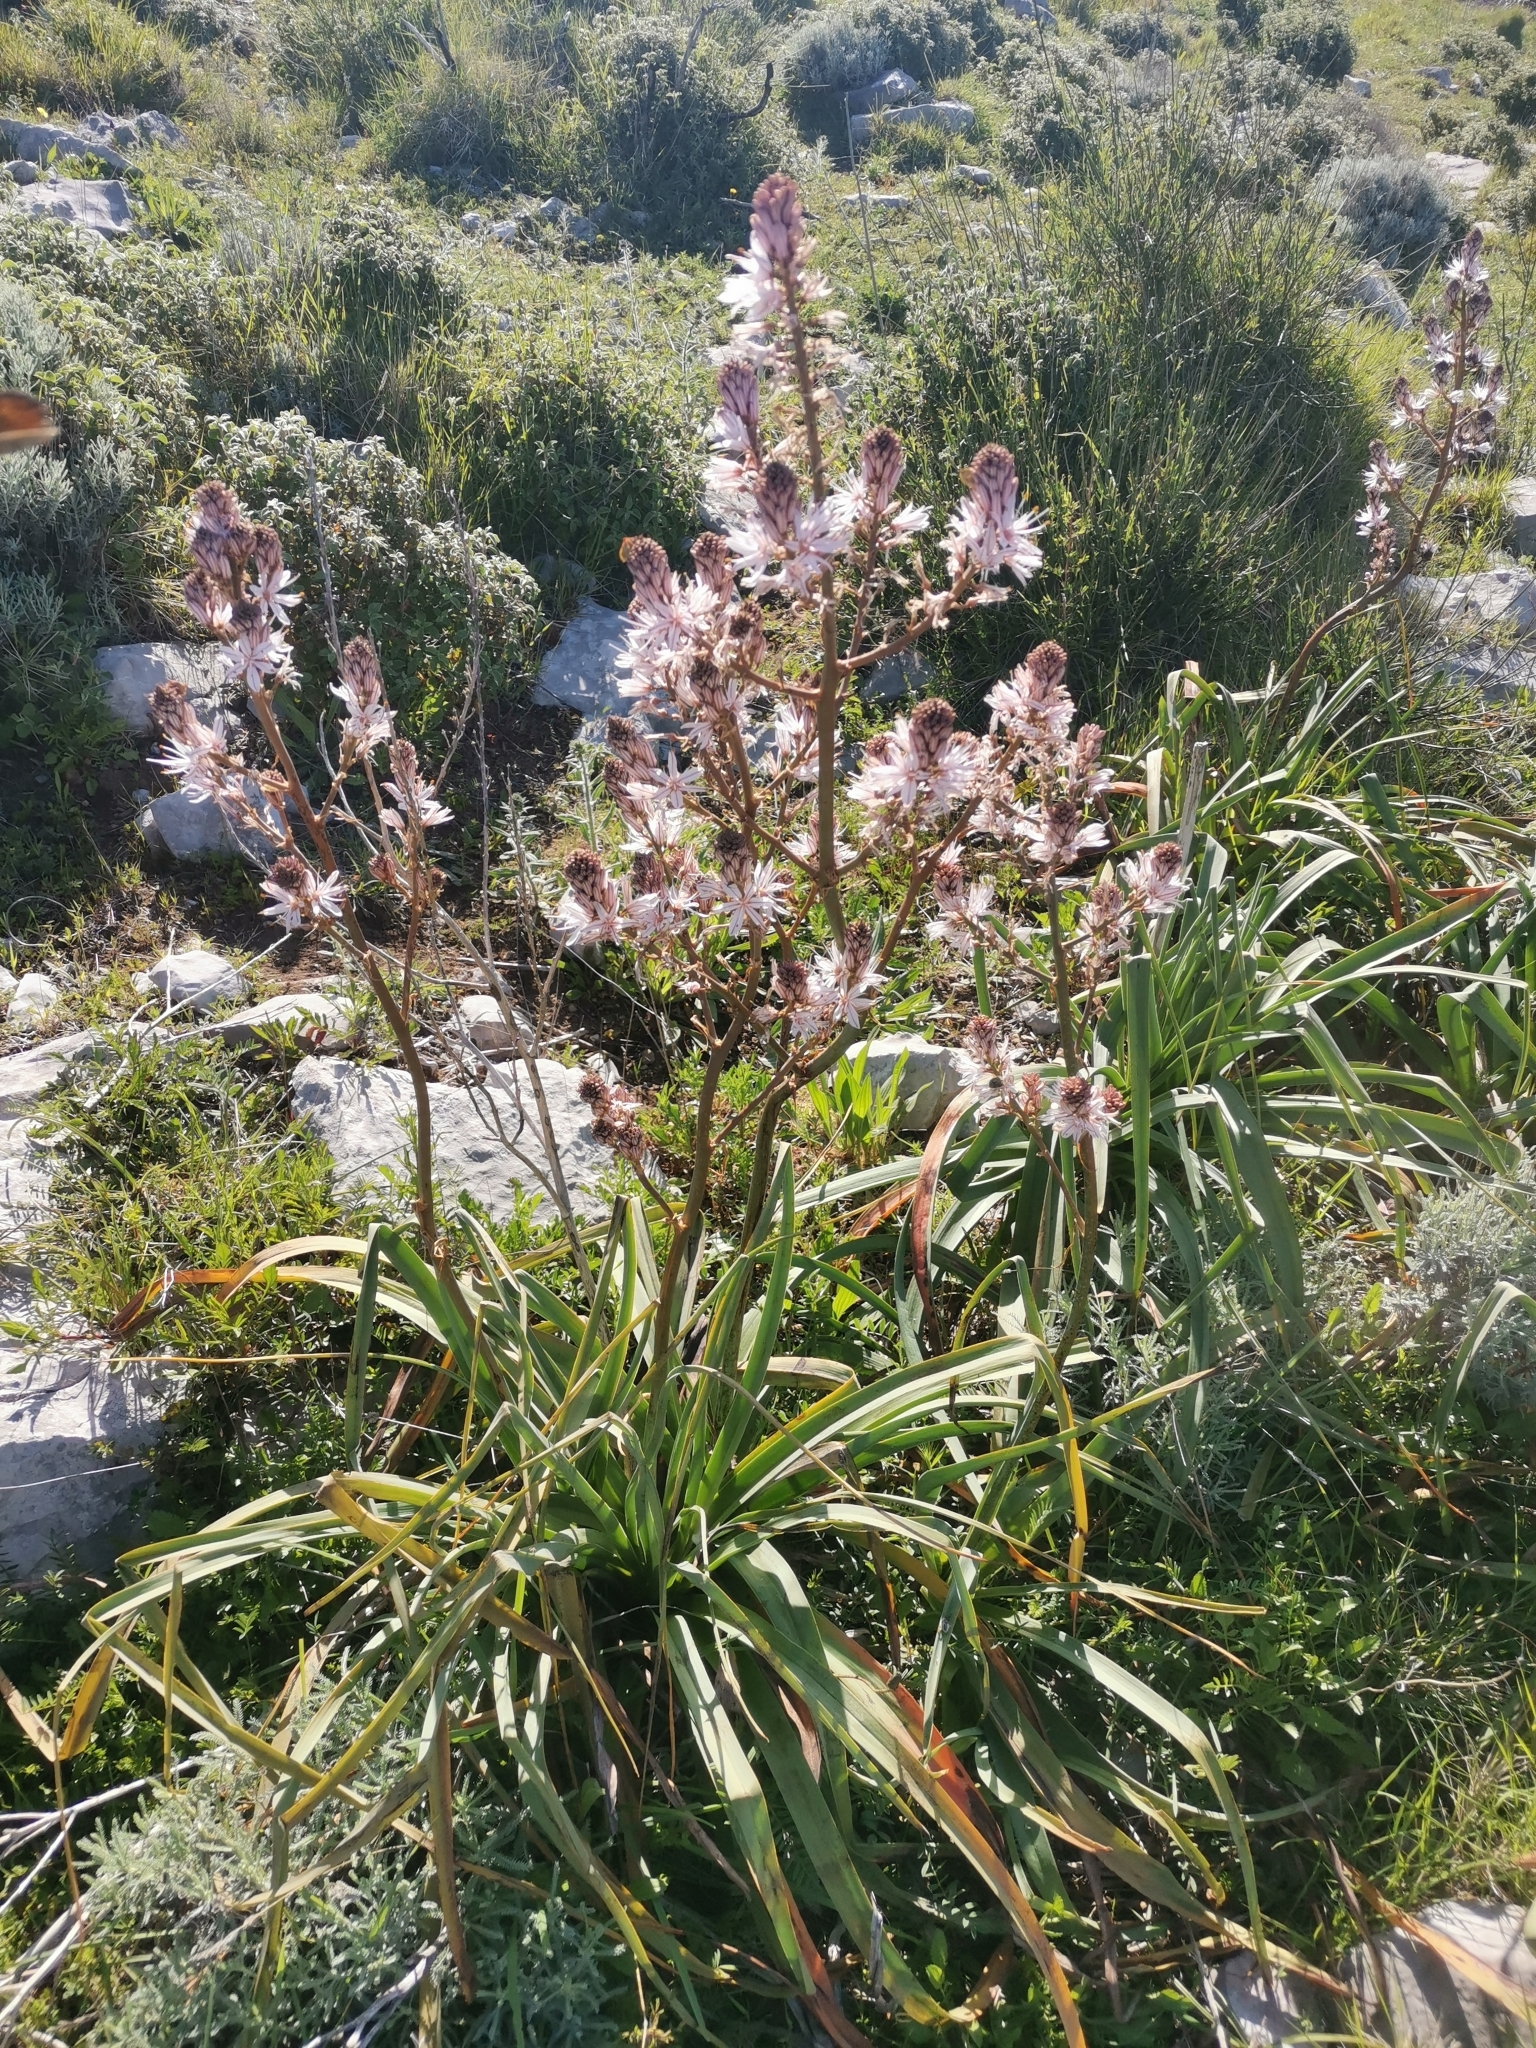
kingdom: Plantae
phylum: Tracheophyta
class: Liliopsida
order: Asparagales
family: Asphodelaceae
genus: Asphodelus
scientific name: Asphodelus ramosus
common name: Silverrod
